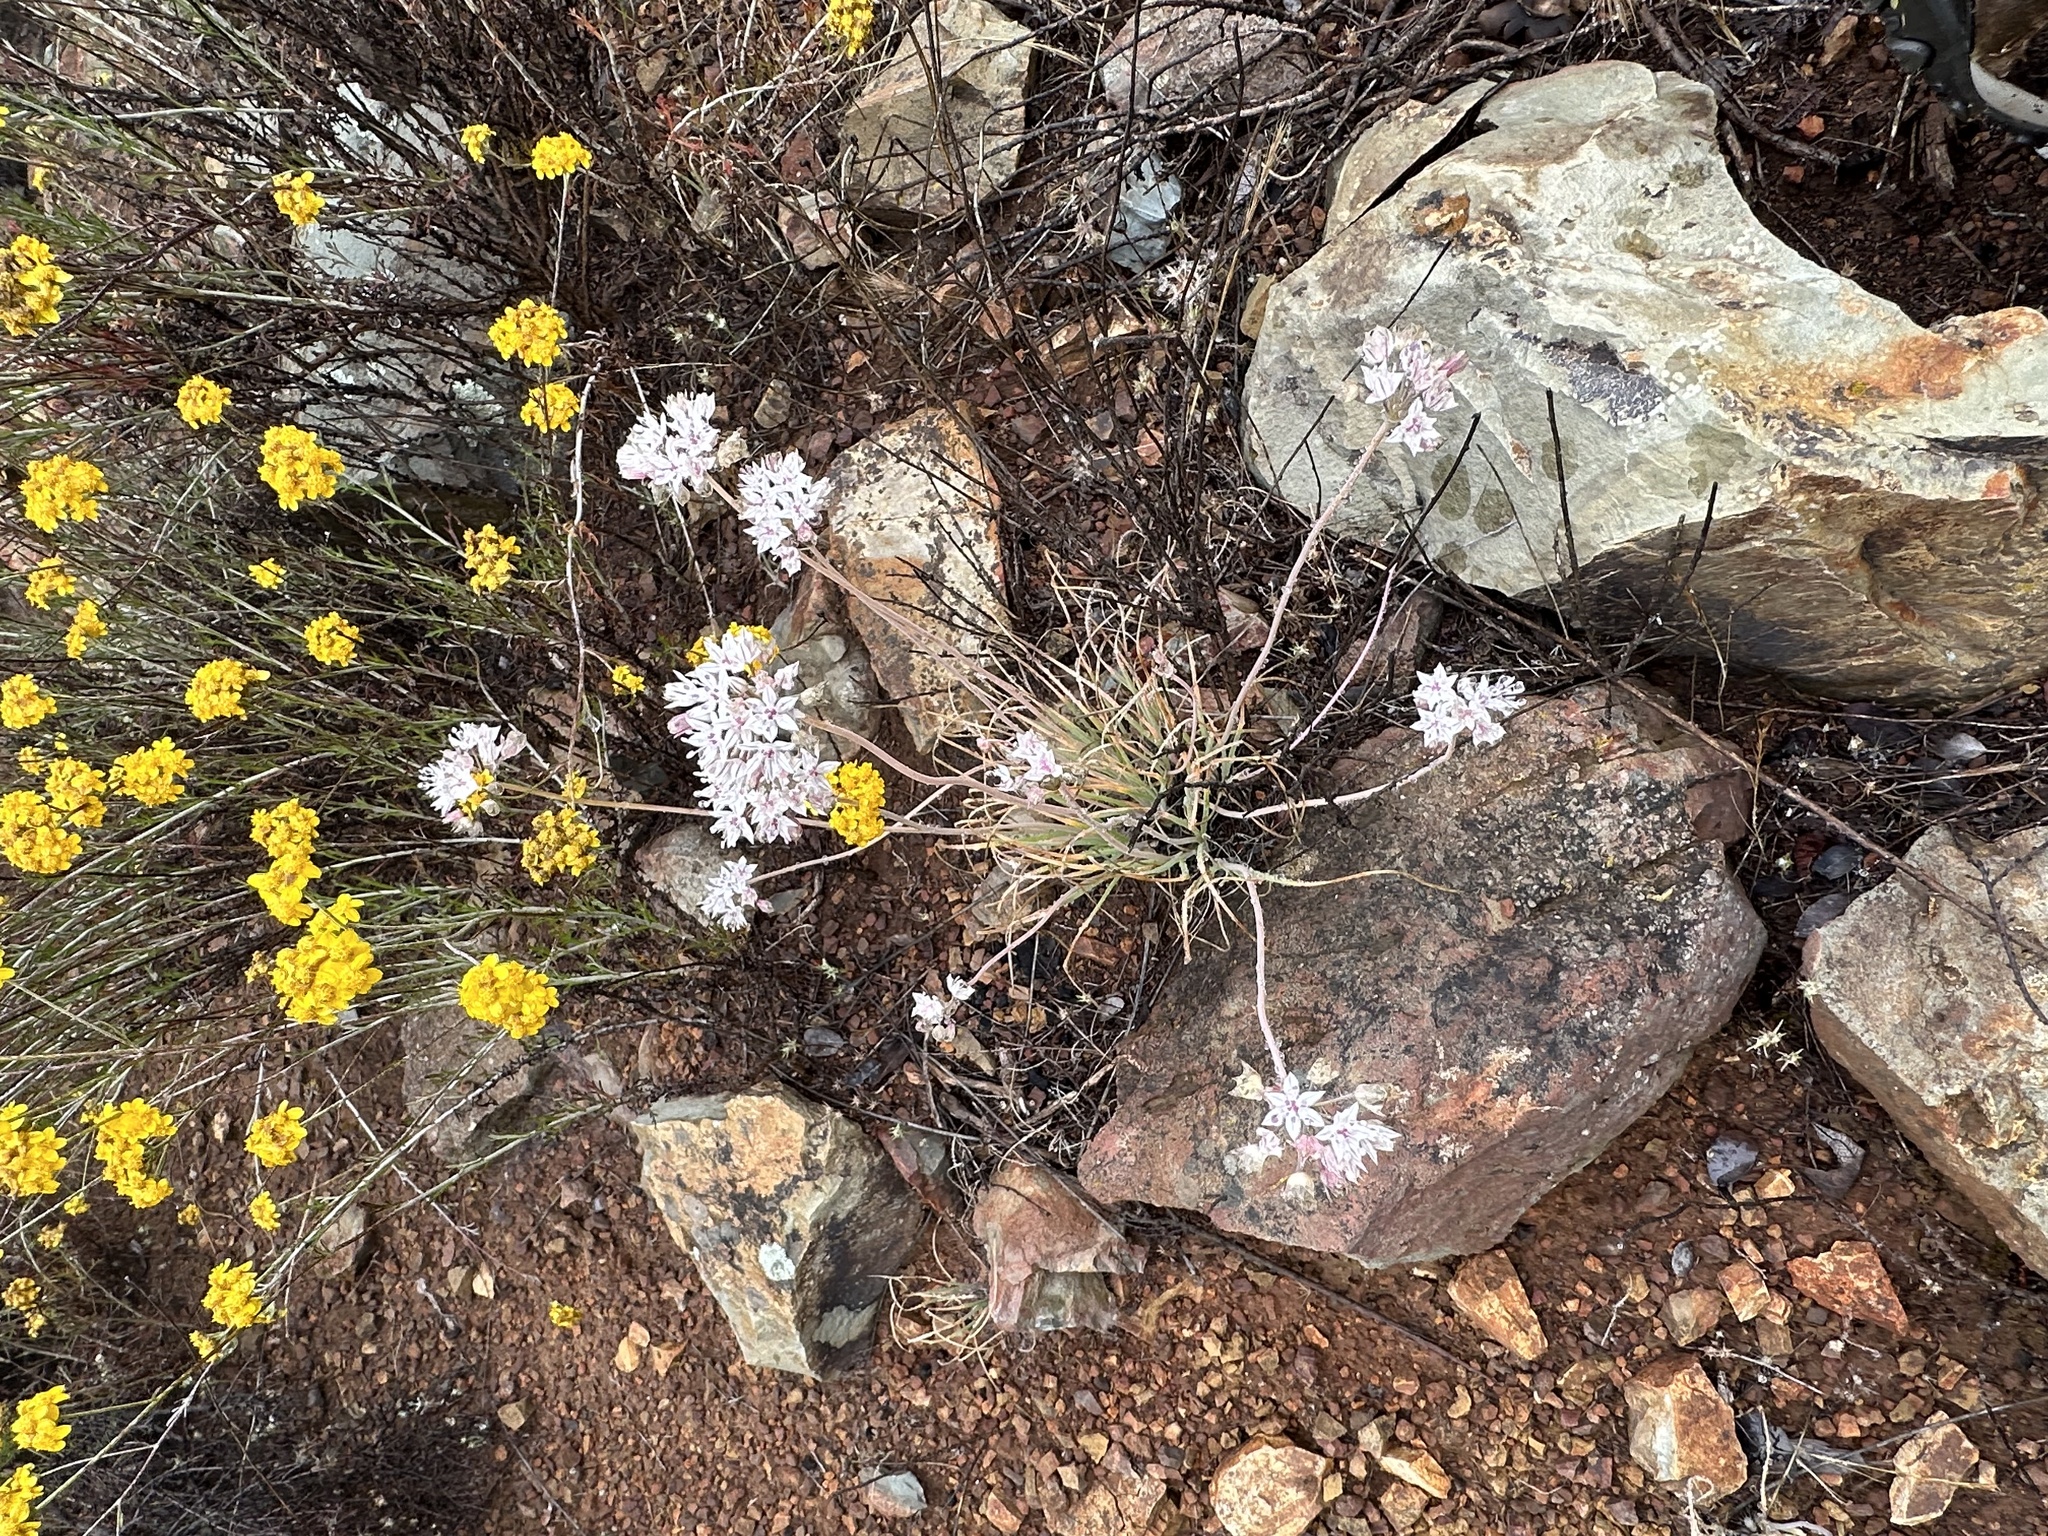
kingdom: Plantae
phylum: Tracheophyta
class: Liliopsida
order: Asparagales
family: Amaryllidaceae
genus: Allium
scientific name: Allium haematochiton
